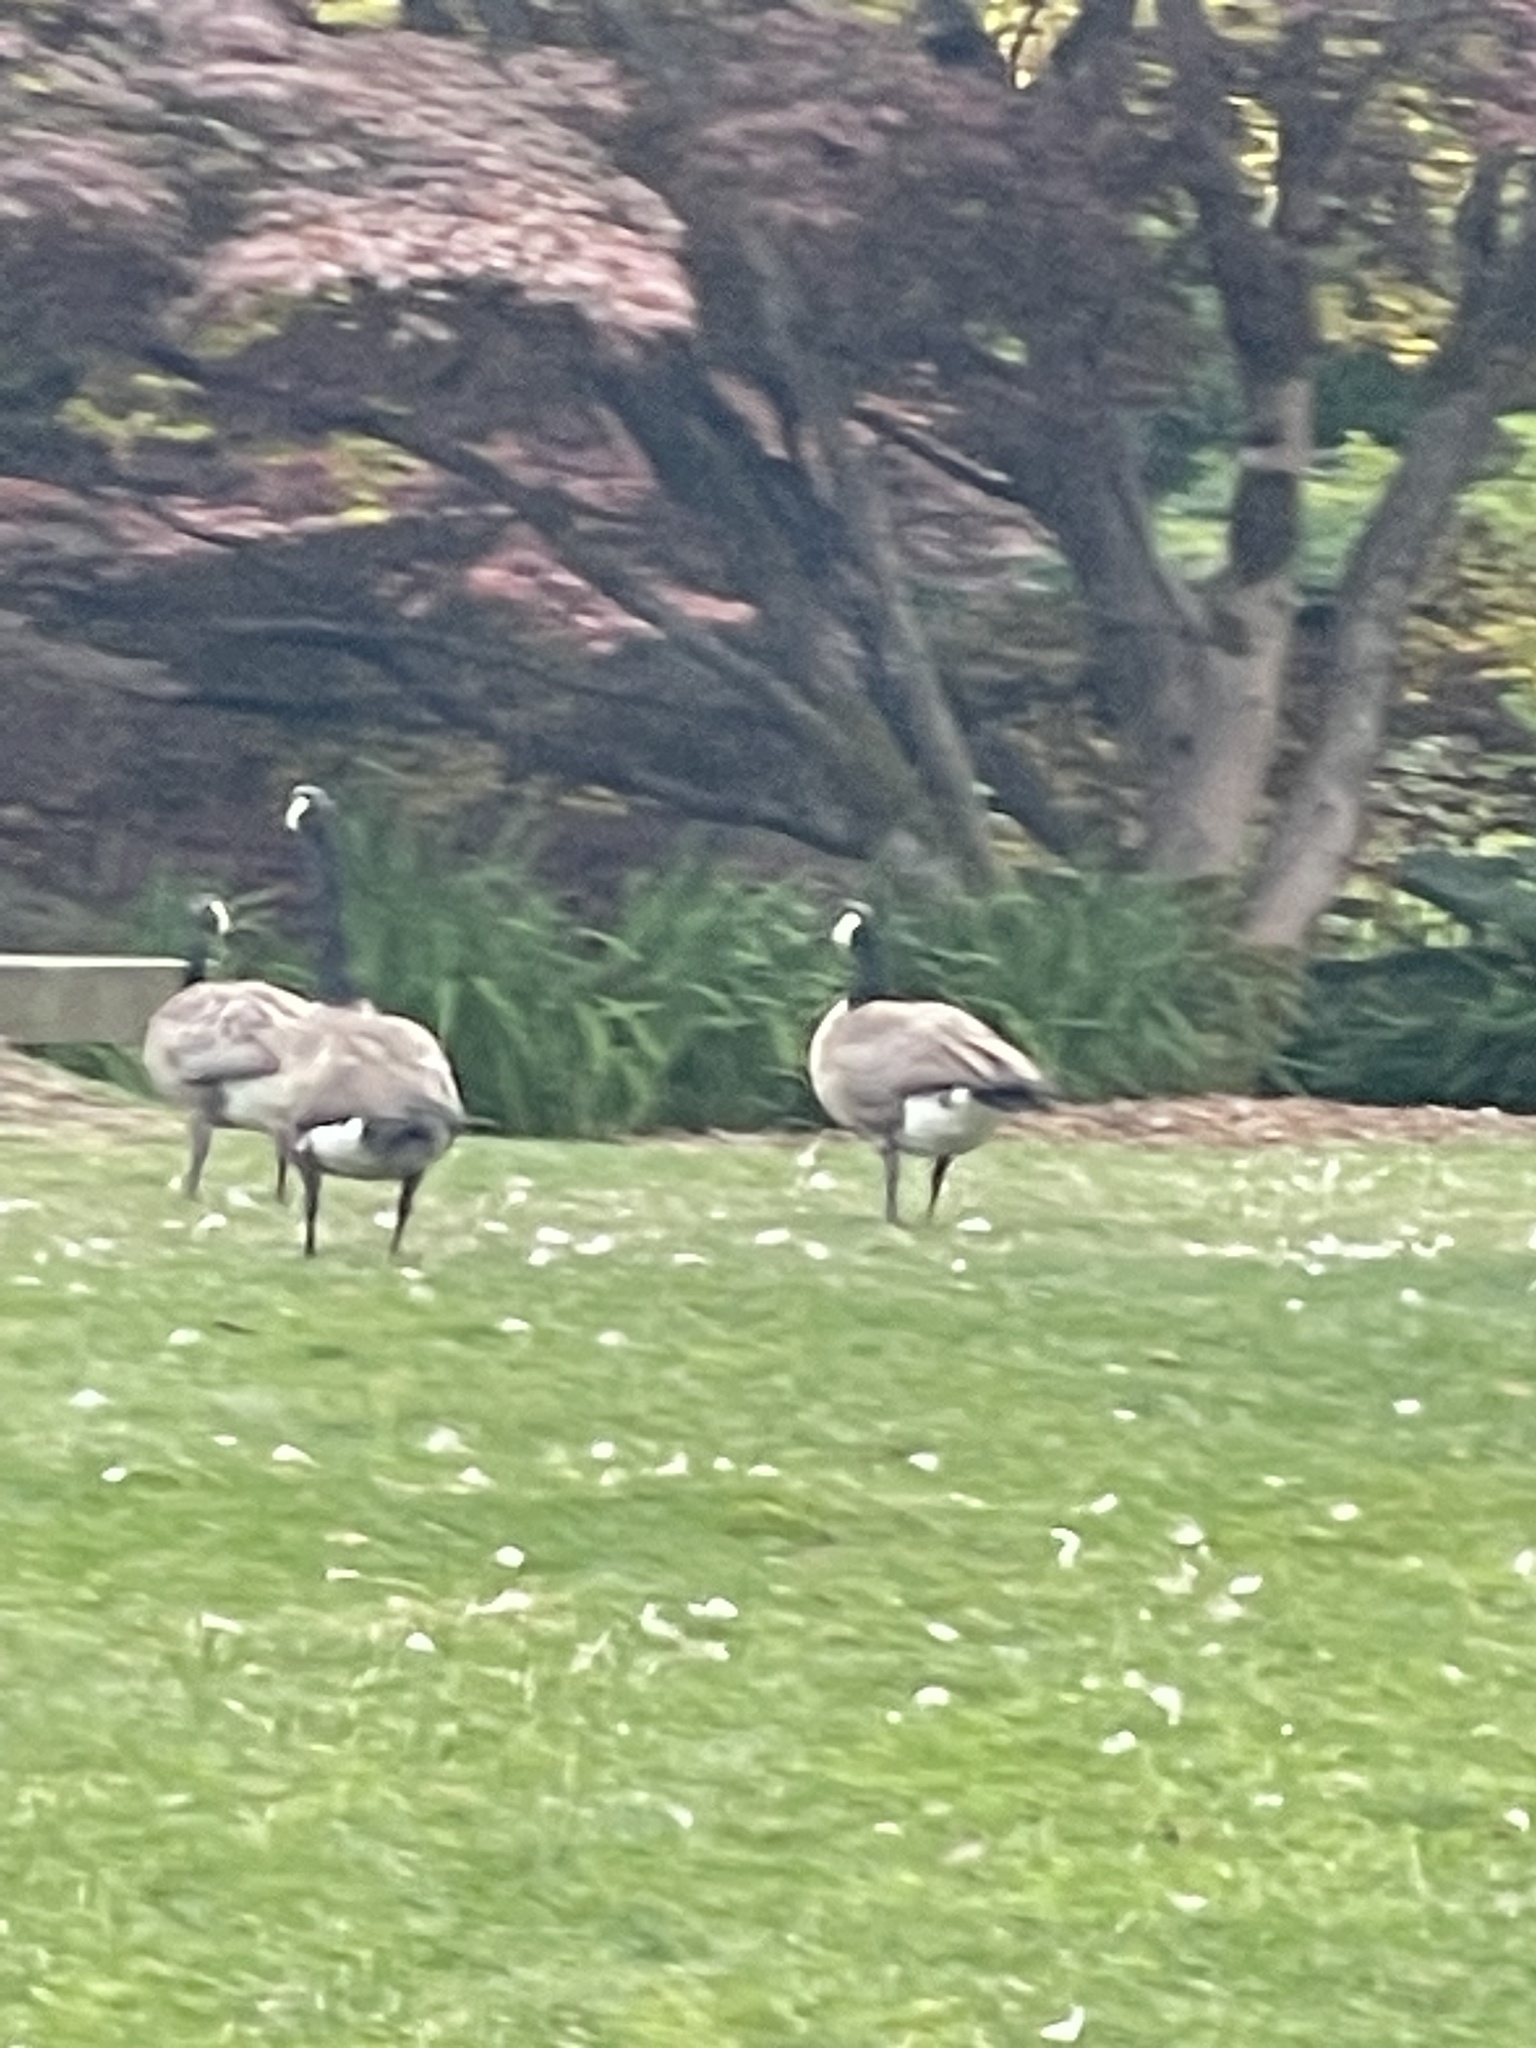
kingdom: Animalia
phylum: Chordata
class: Aves
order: Anseriformes
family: Anatidae
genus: Branta
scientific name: Branta canadensis
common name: Canada goose
